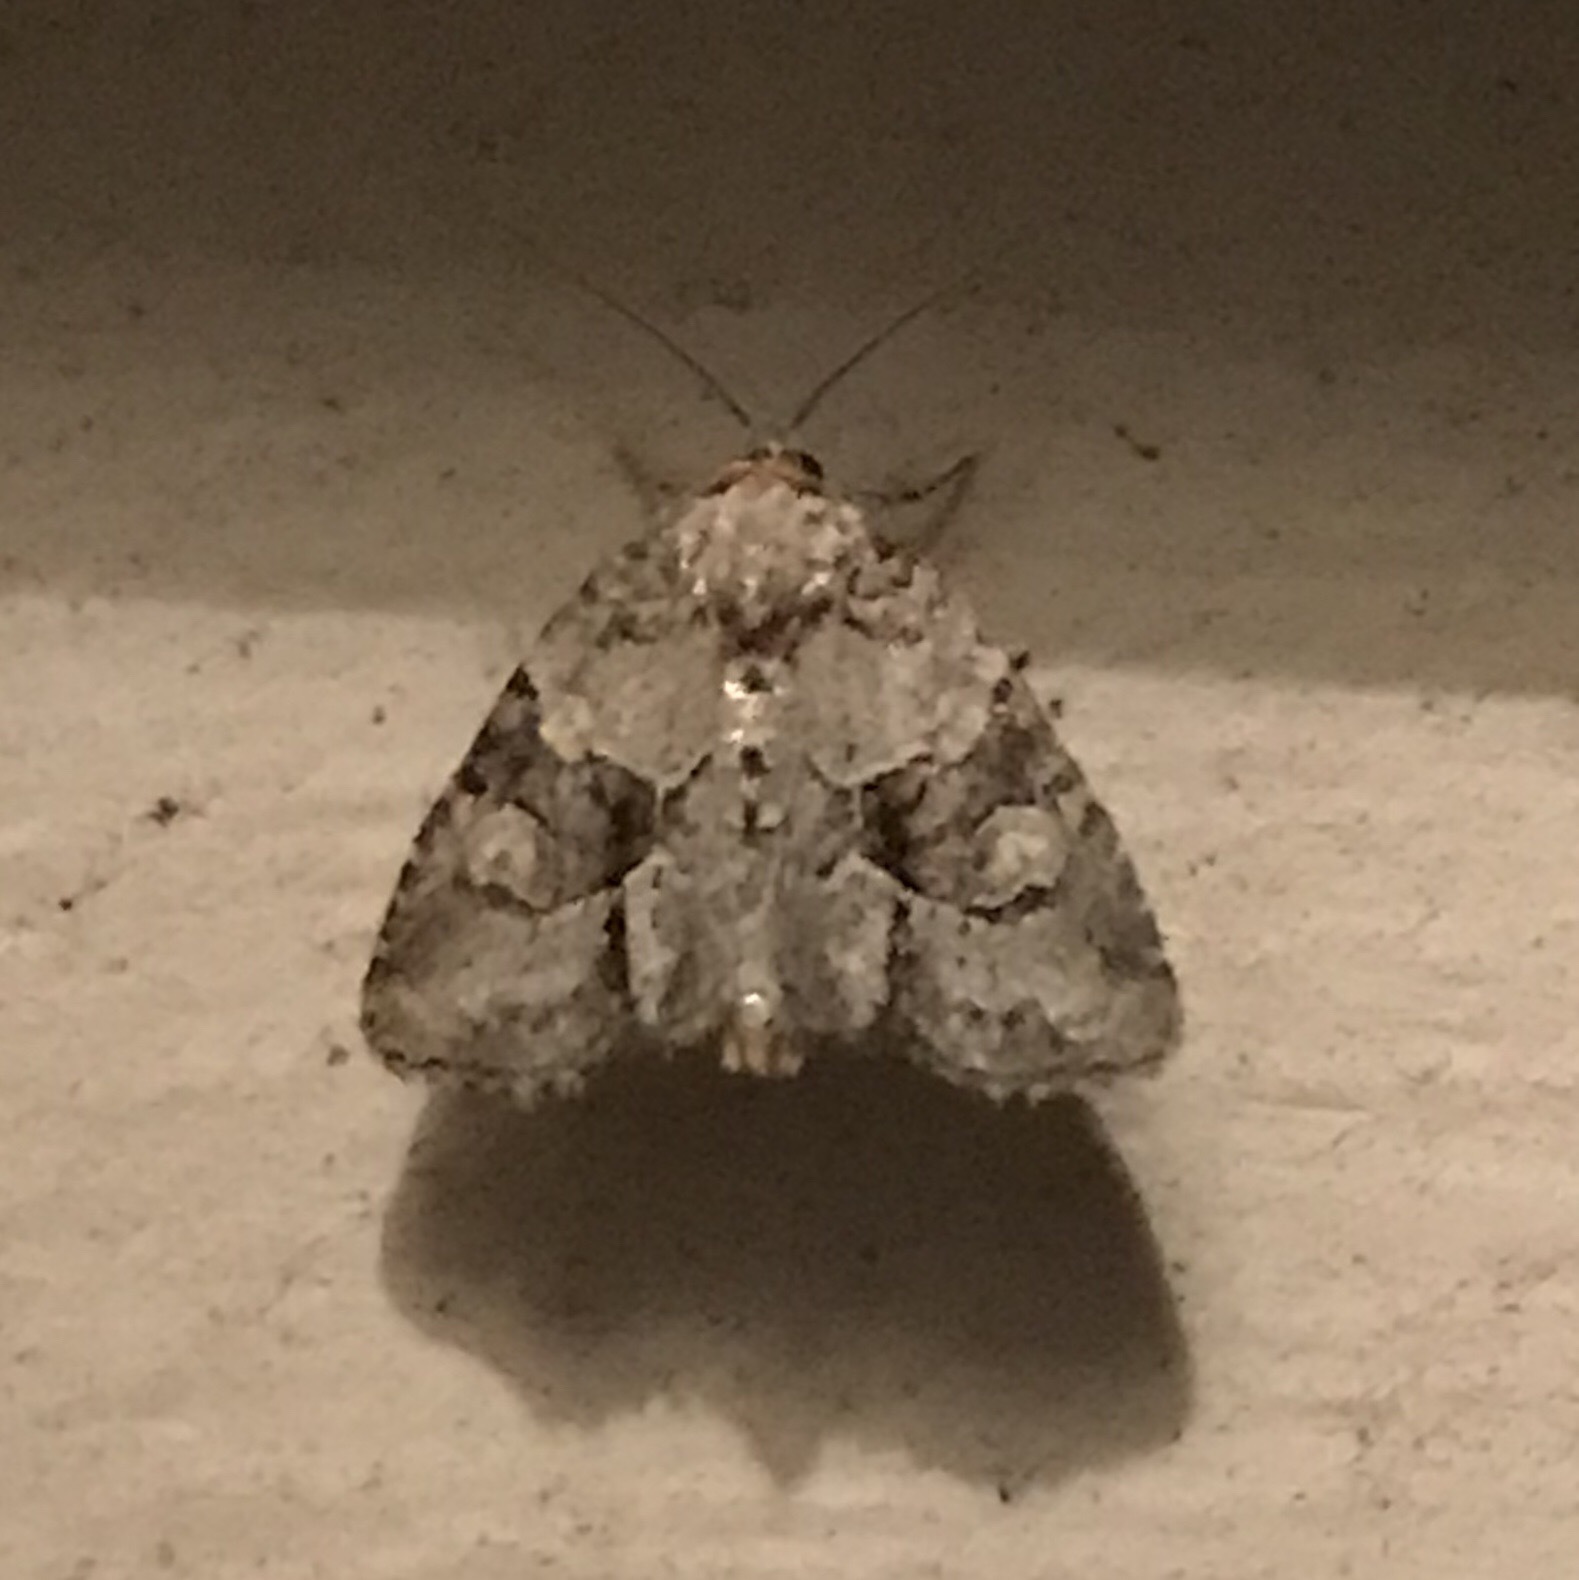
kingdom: Animalia
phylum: Arthropoda
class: Insecta
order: Lepidoptera
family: Noctuidae
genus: Neoligia
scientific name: Neoligia exhausta
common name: Exhausted brocade
